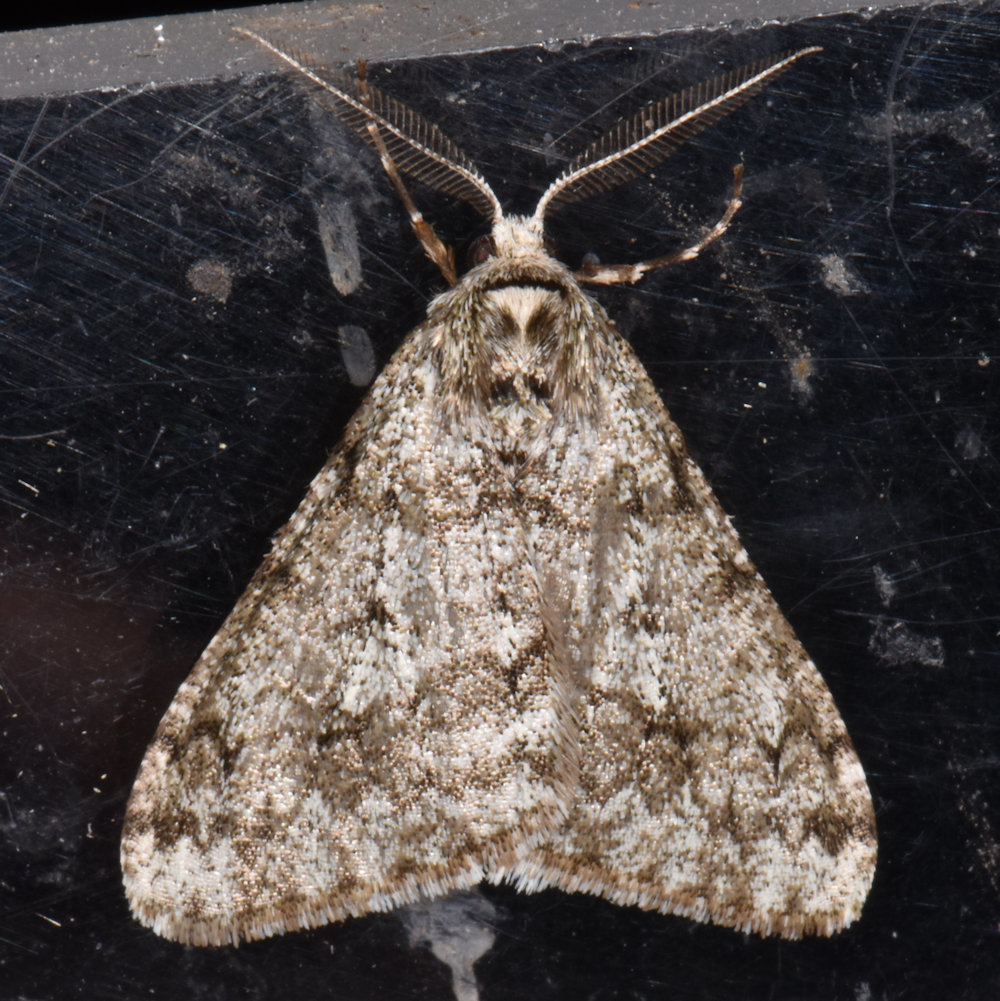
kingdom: Animalia
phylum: Arthropoda
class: Insecta
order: Lepidoptera
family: Geometridae
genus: Phigalia
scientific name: Phigalia strigataria
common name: Small phigalia
